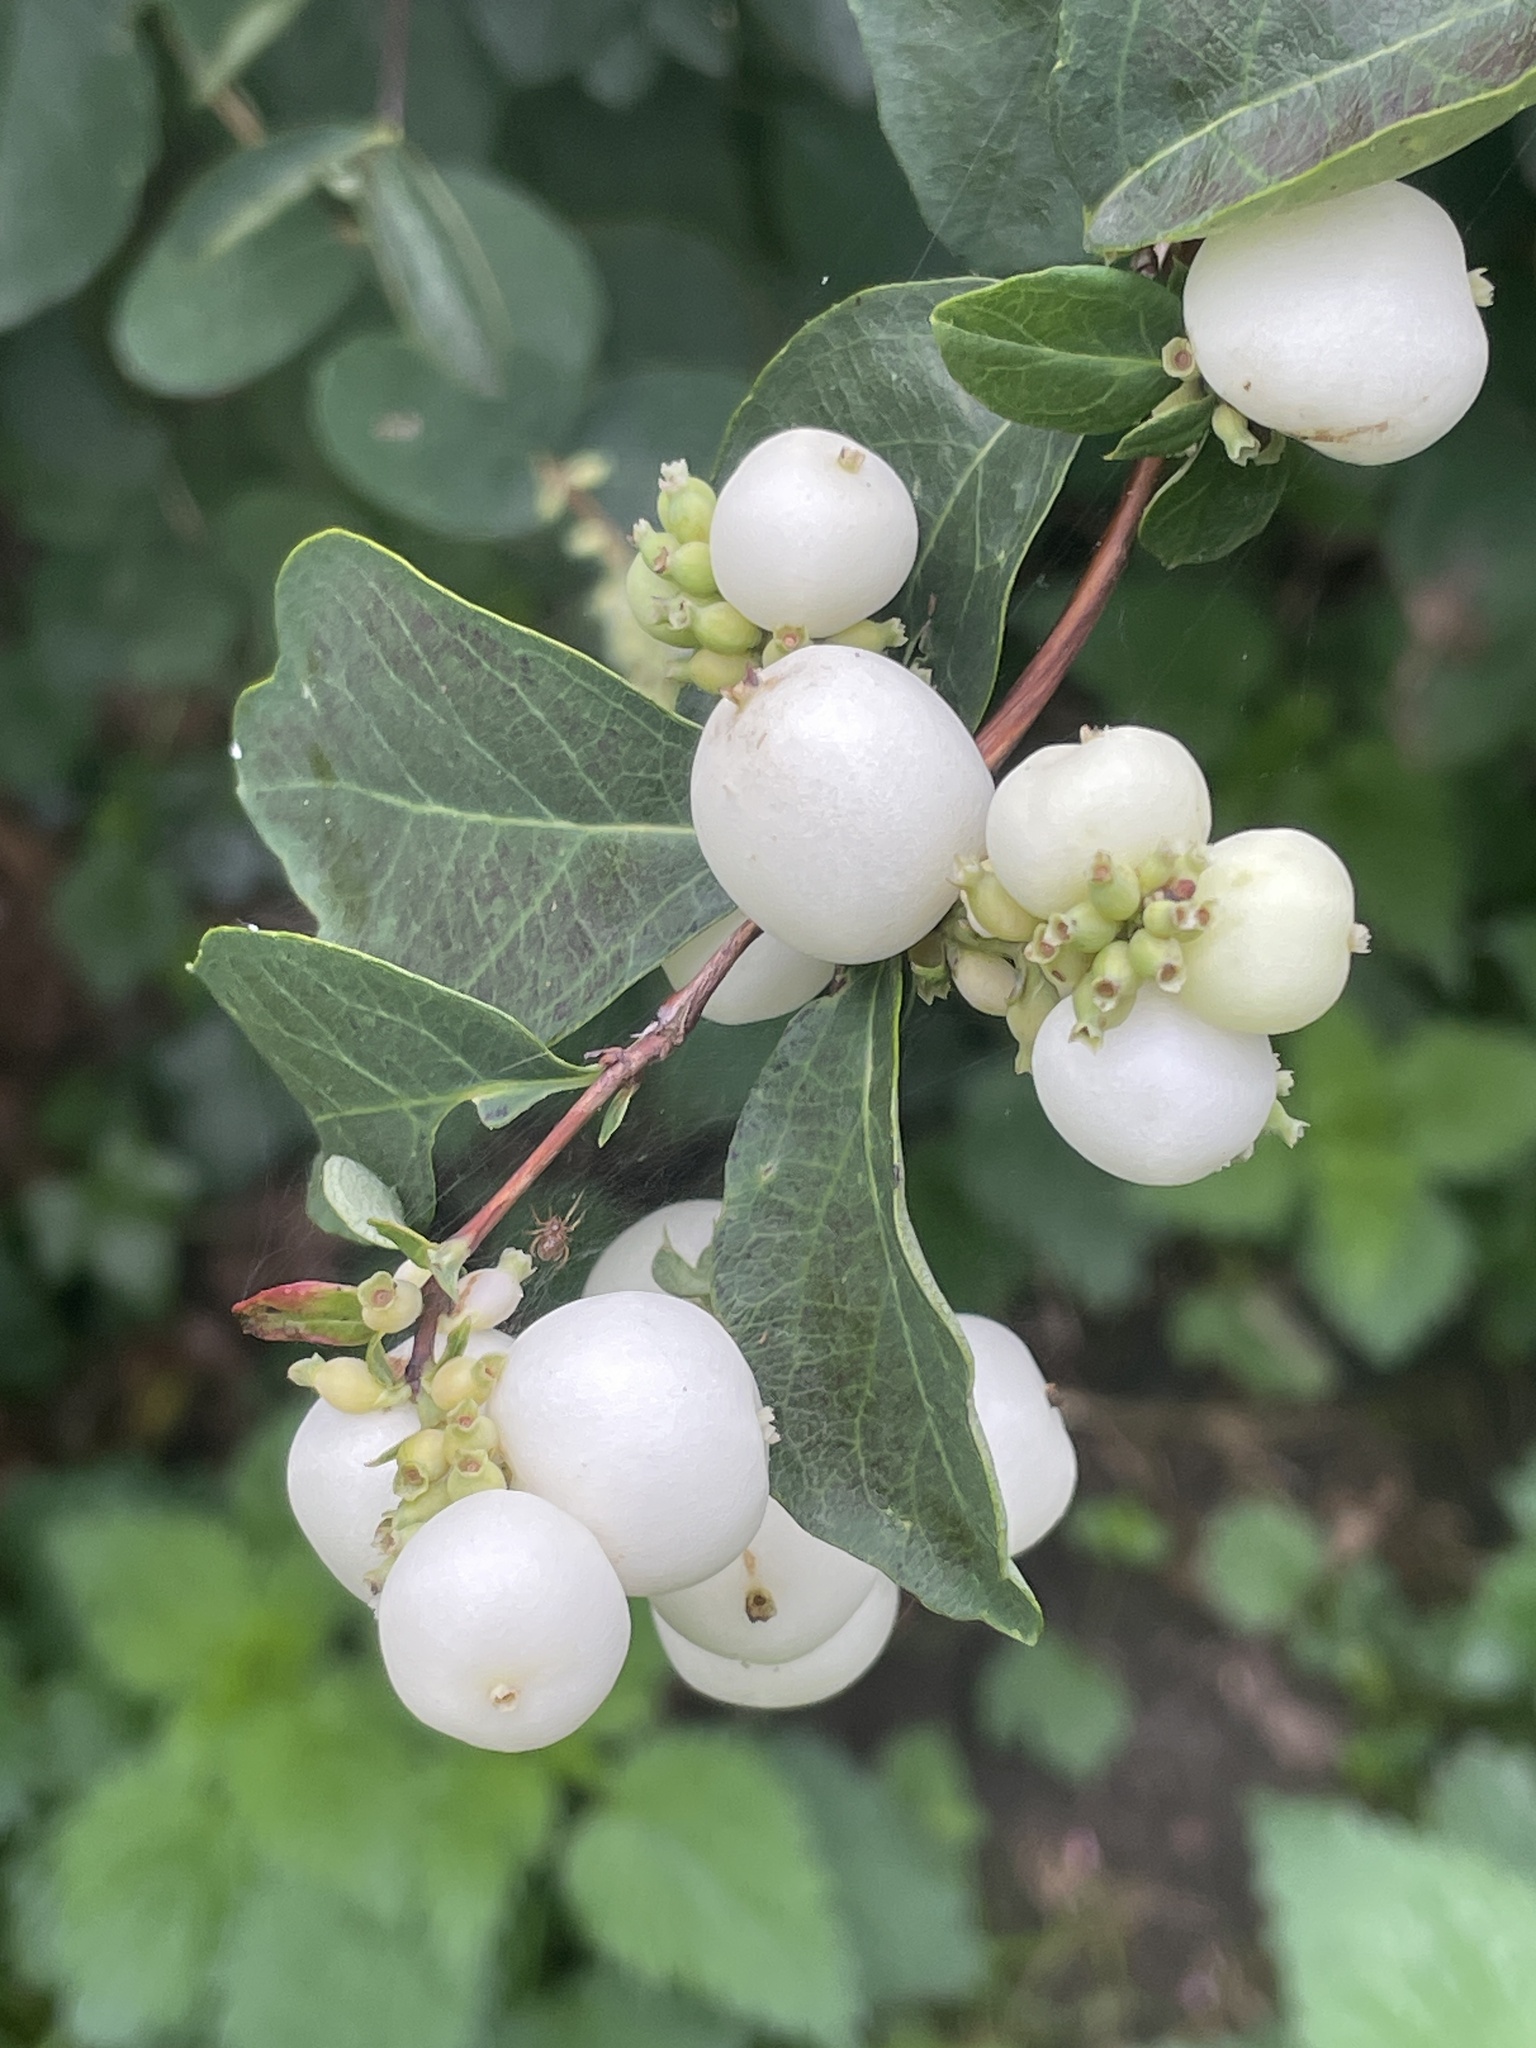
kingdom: Plantae
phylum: Tracheophyta
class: Magnoliopsida
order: Dipsacales
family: Caprifoliaceae
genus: Symphoricarpos
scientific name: Symphoricarpos albus
